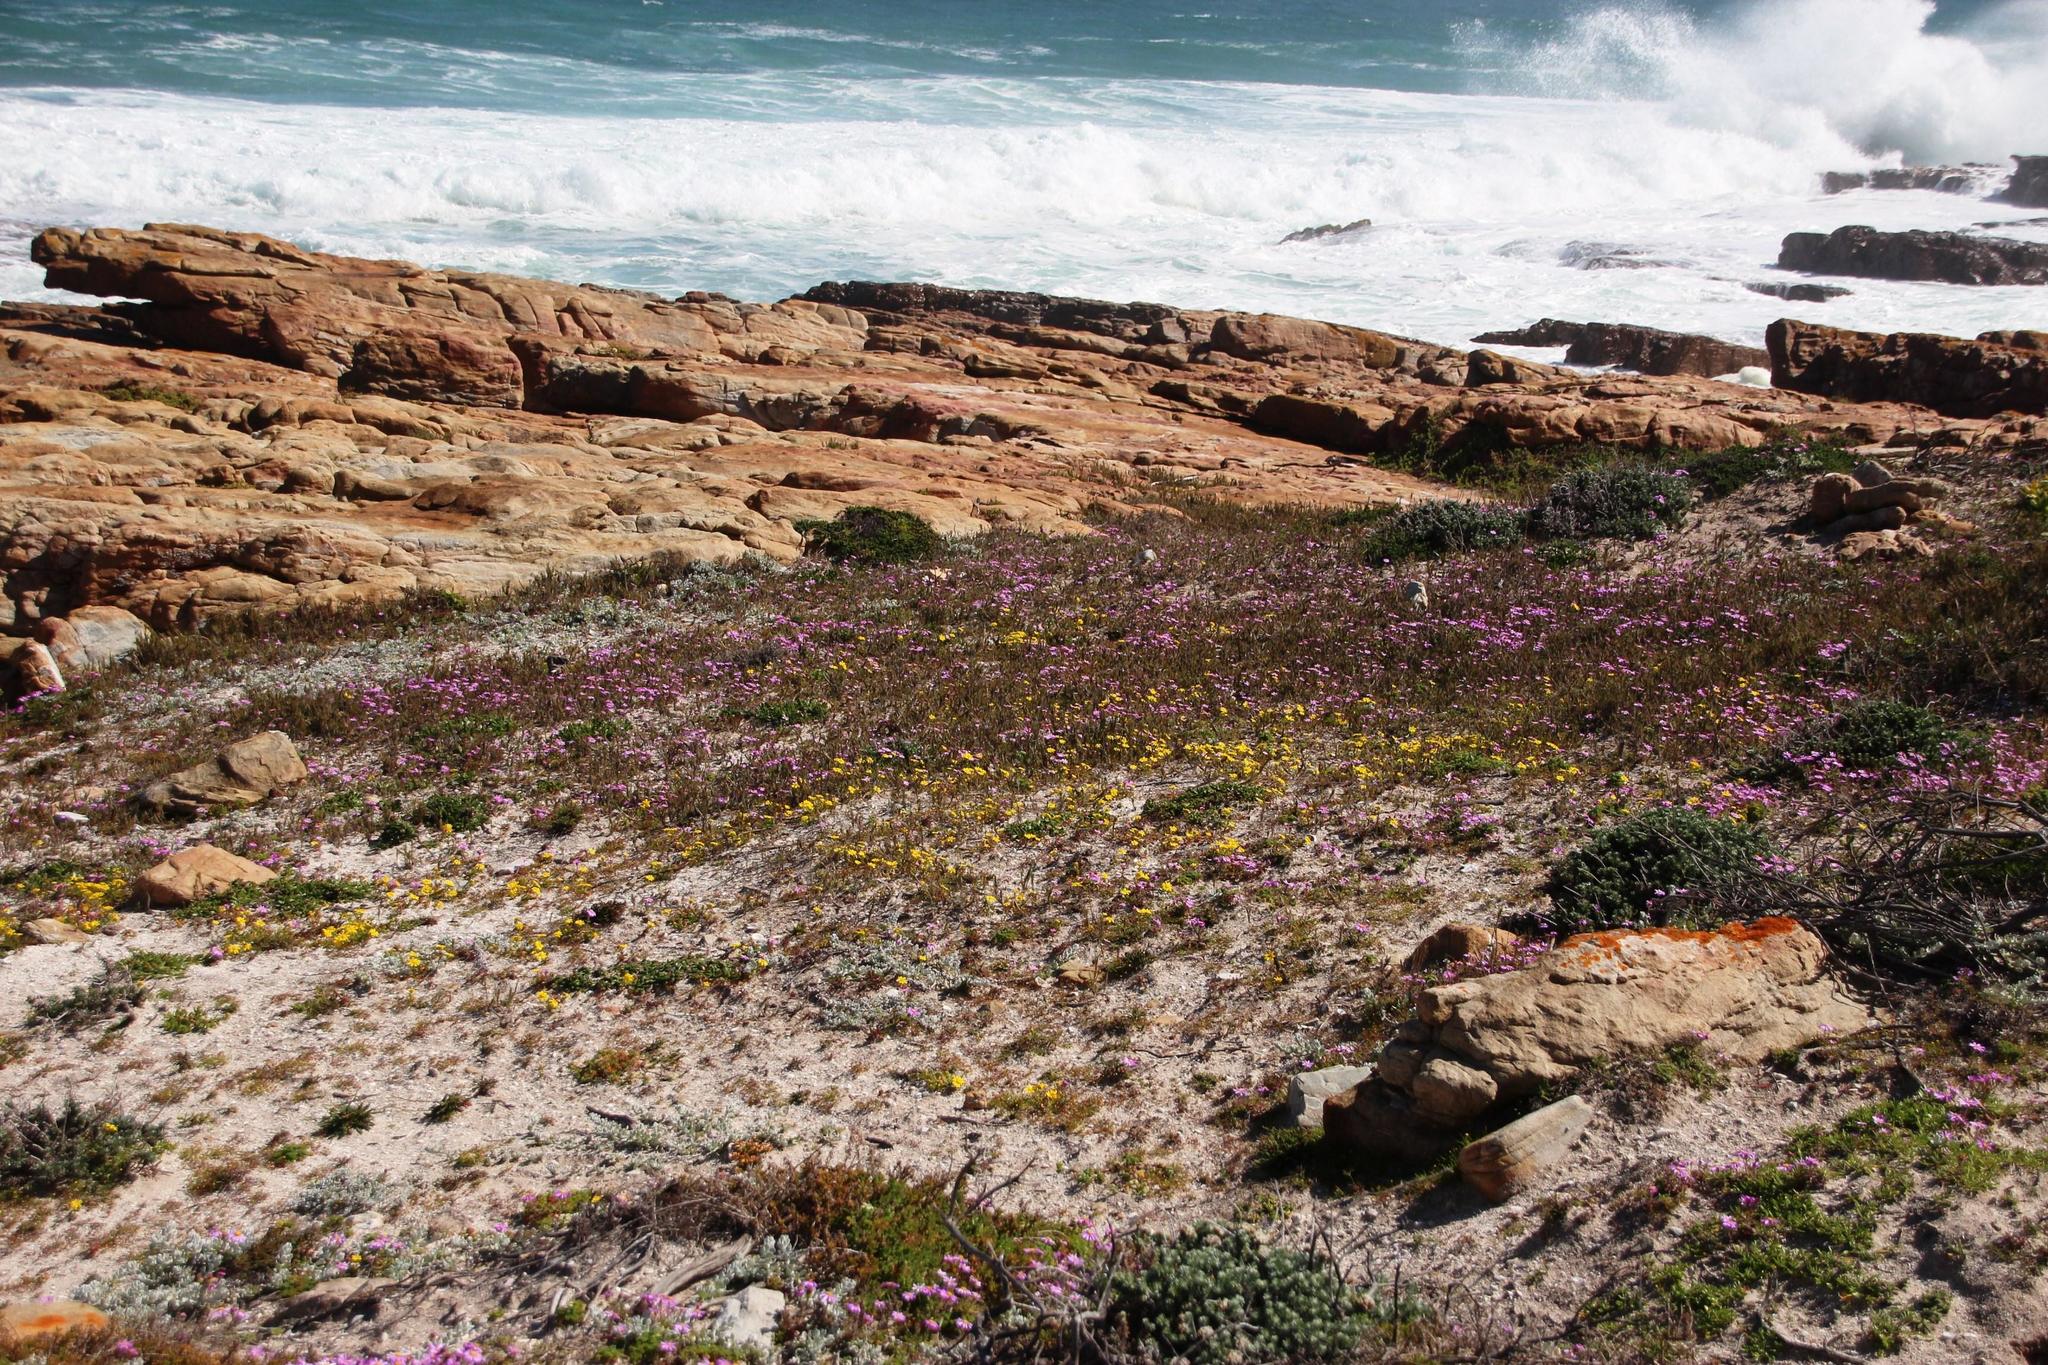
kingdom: Plantae
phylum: Tracheophyta
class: Magnoliopsida
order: Asterales
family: Asteraceae
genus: Senecio
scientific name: Senecio arenarius
